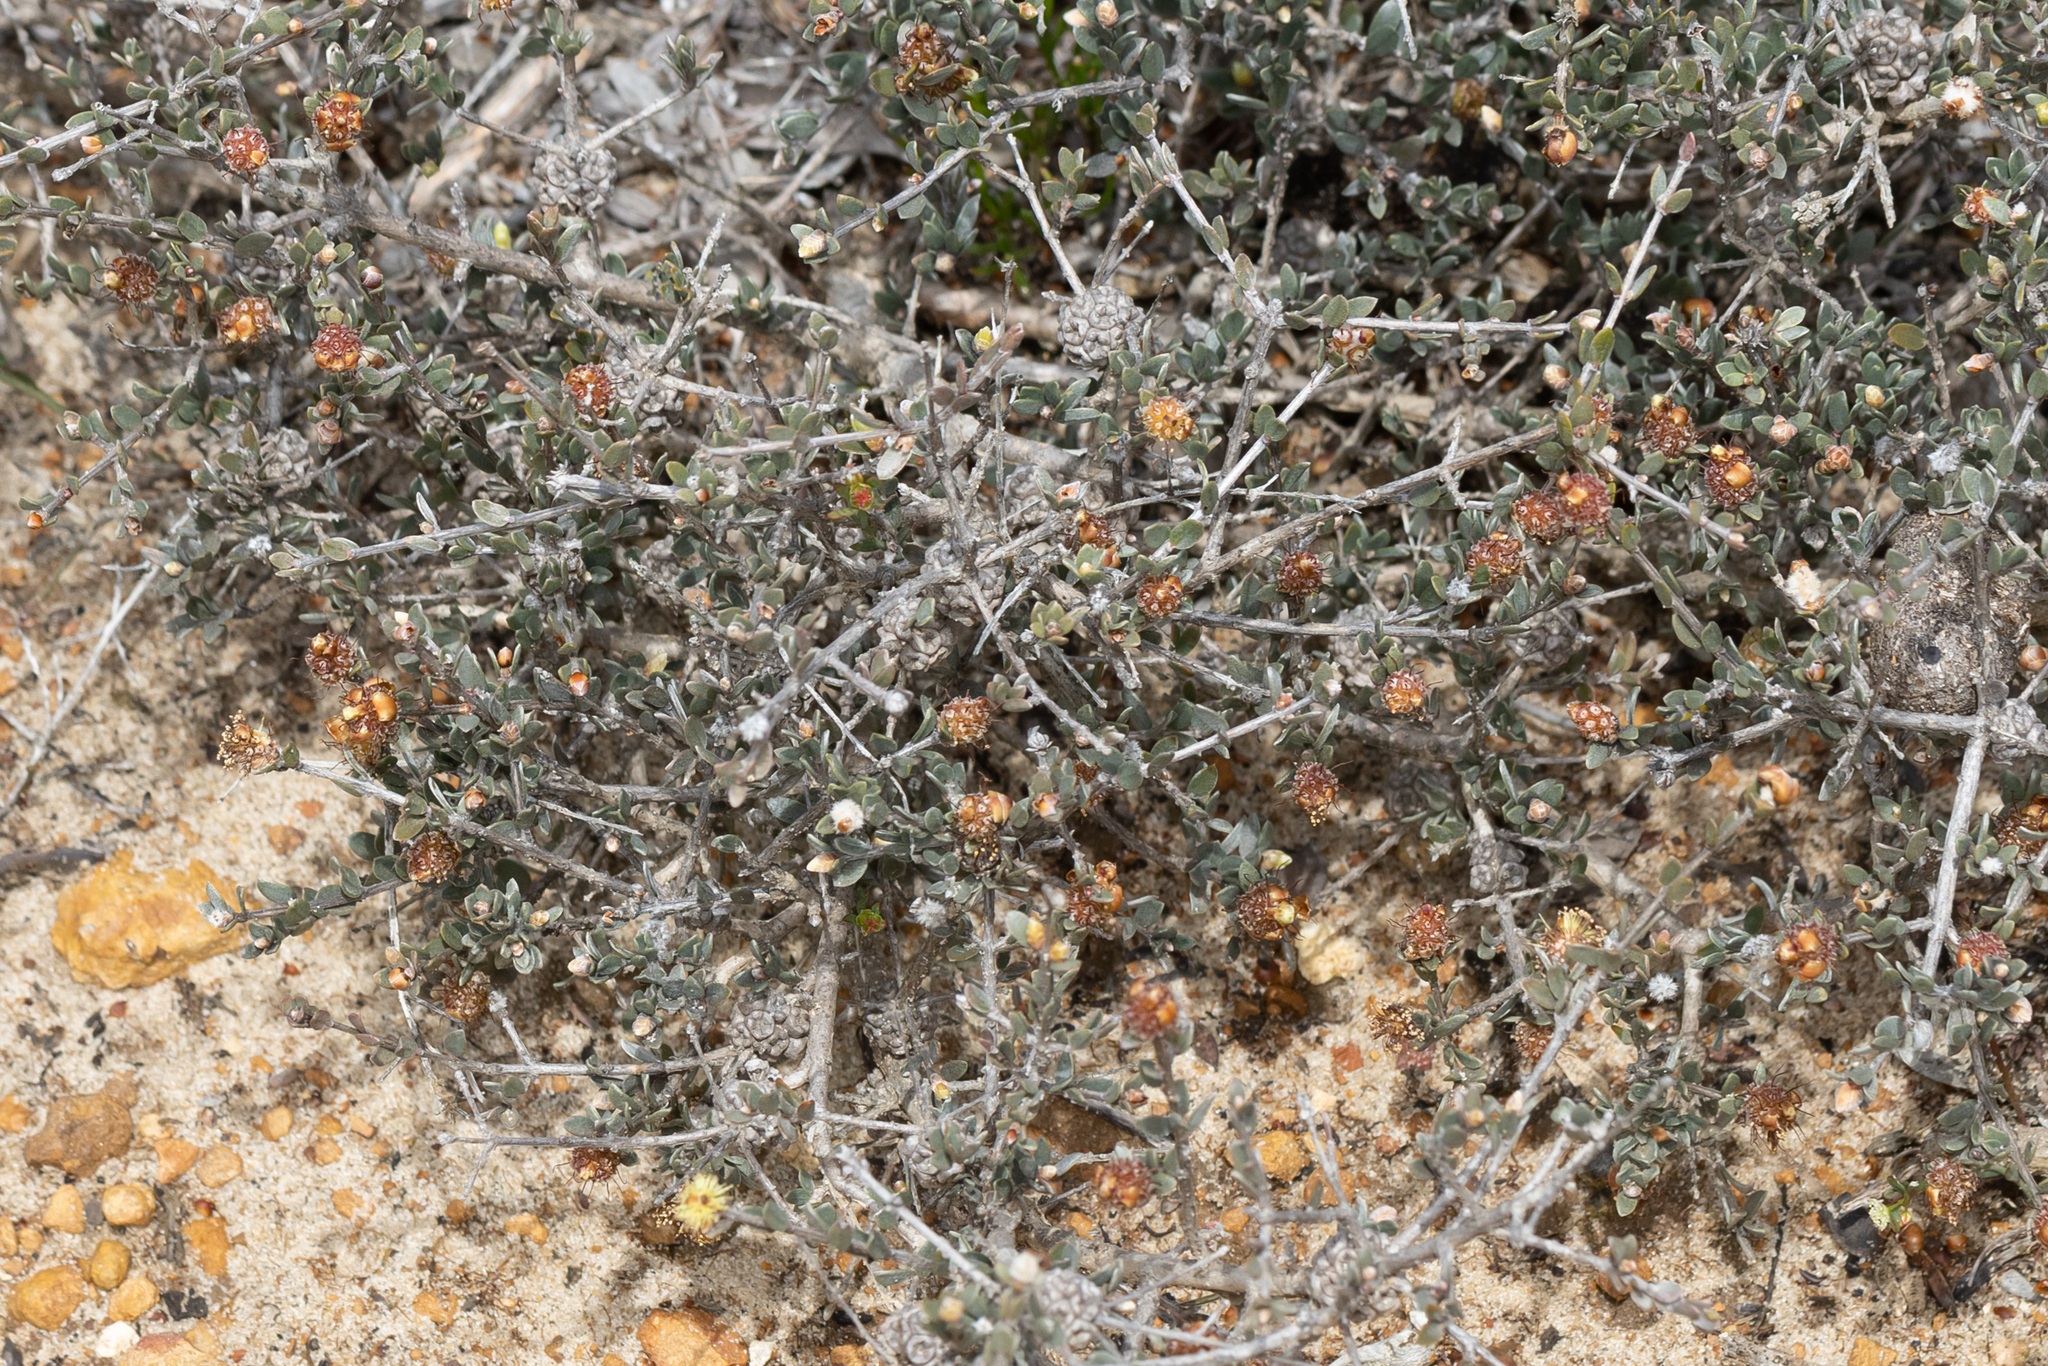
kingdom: Plantae
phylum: Tracheophyta
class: Magnoliopsida
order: Myrtales
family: Myrtaceae
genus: Melaleuca
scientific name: Melaleuca aurea
